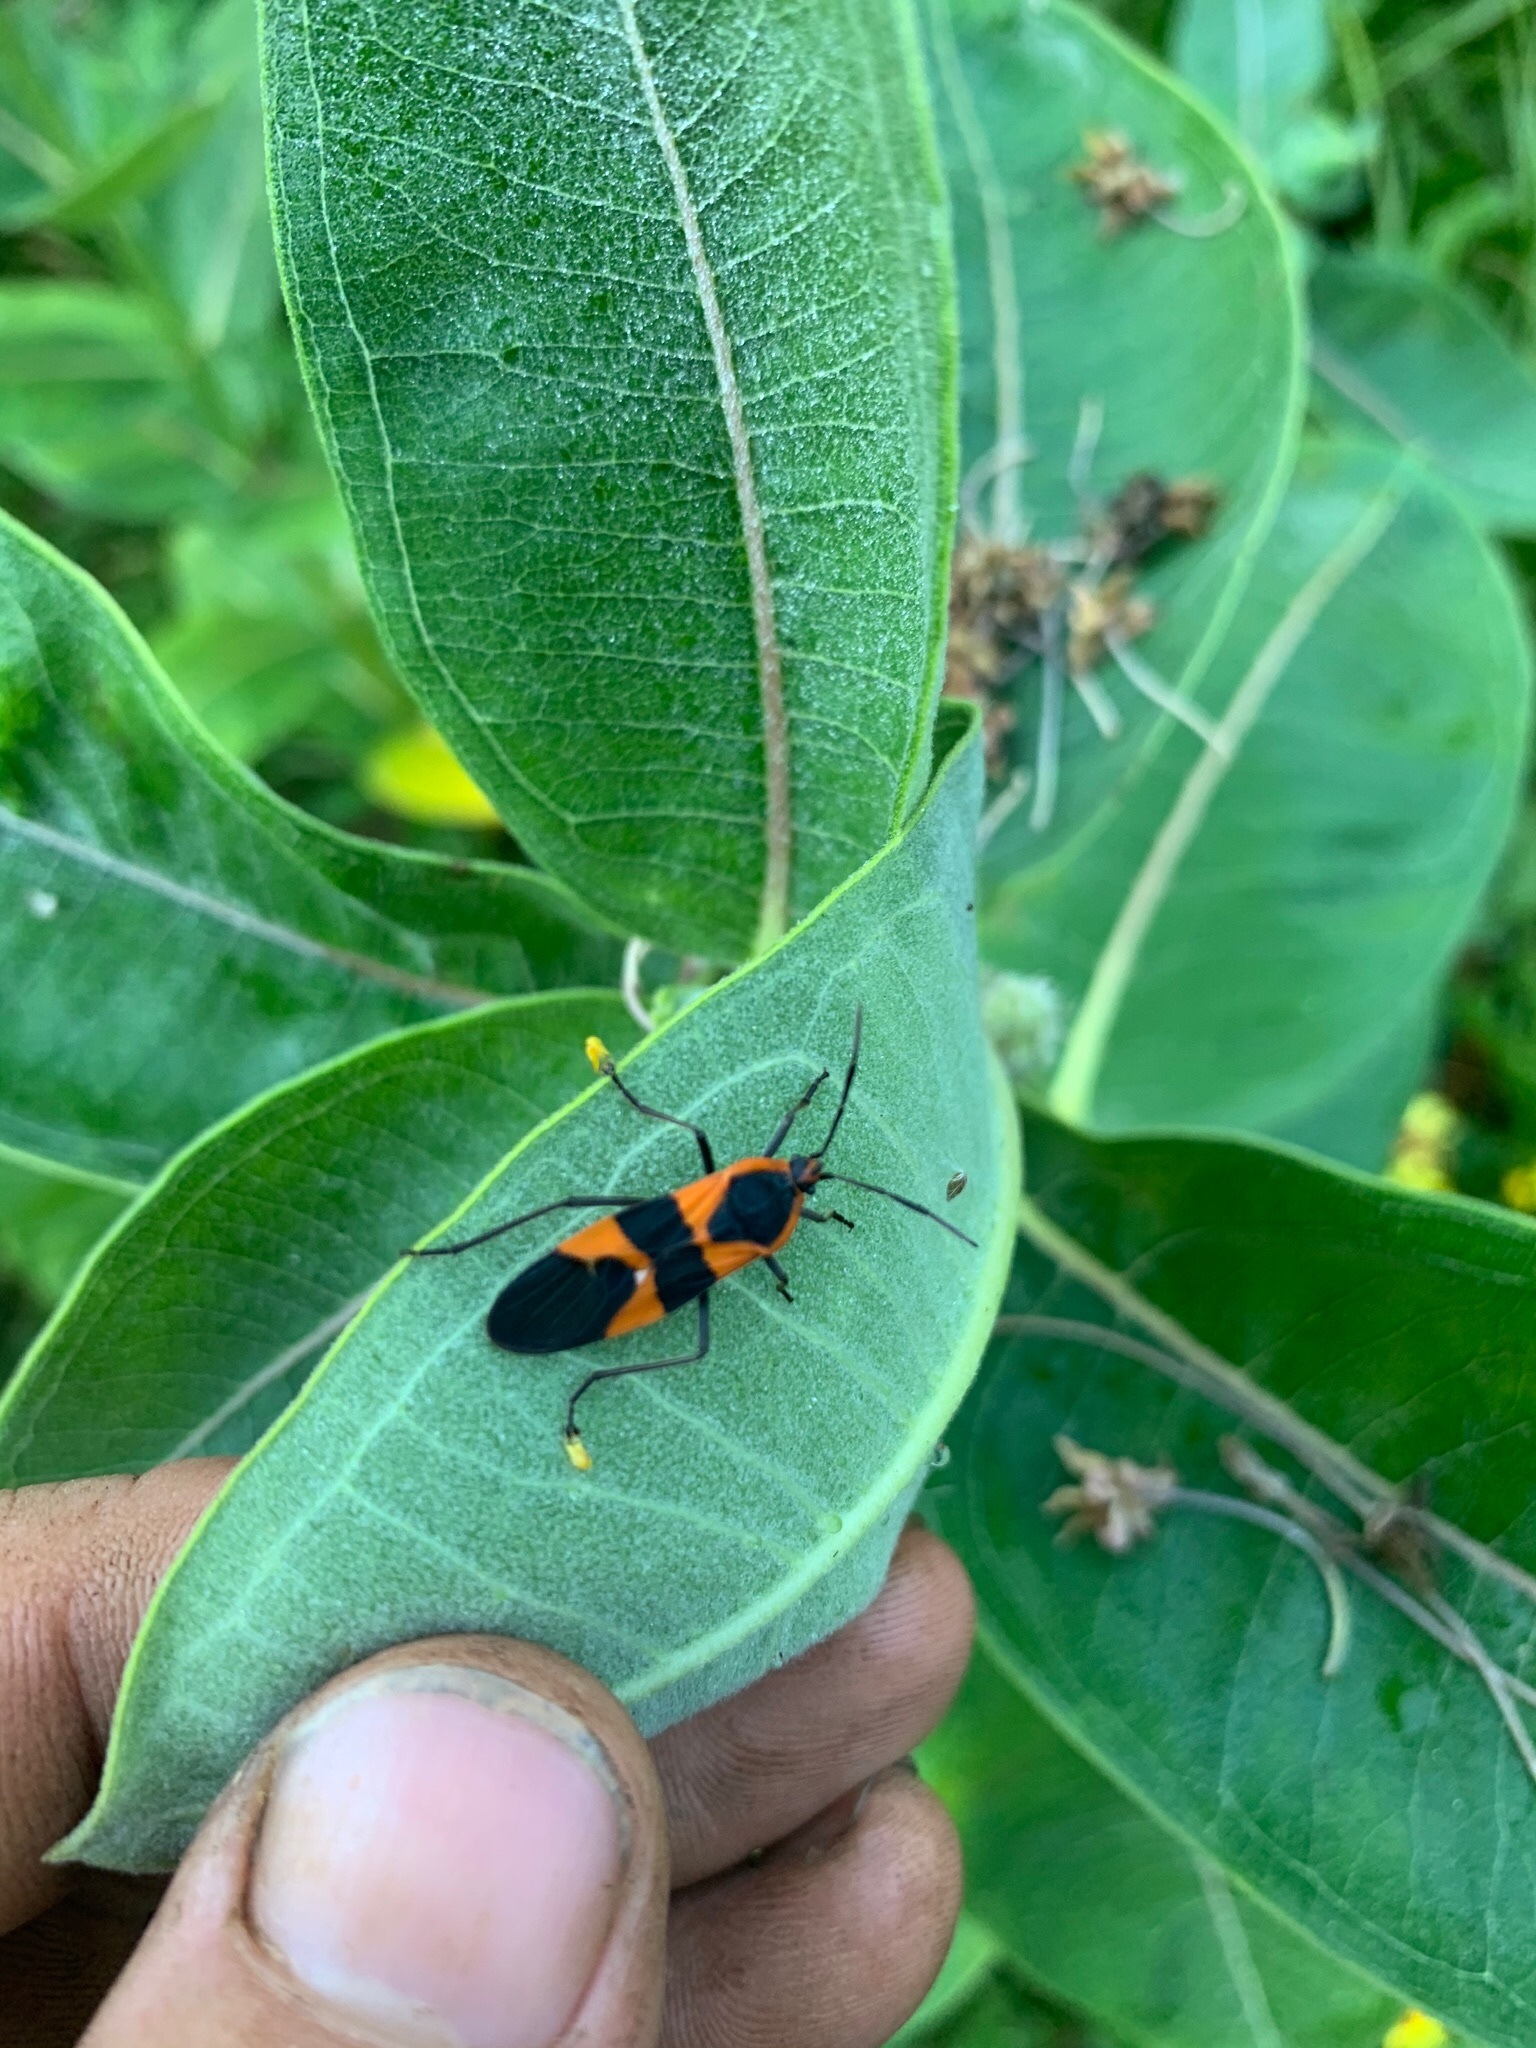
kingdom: Animalia
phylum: Arthropoda
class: Insecta
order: Hemiptera
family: Lygaeidae
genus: Oncopeltus
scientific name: Oncopeltus fasciatus
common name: Large milkweed bug
